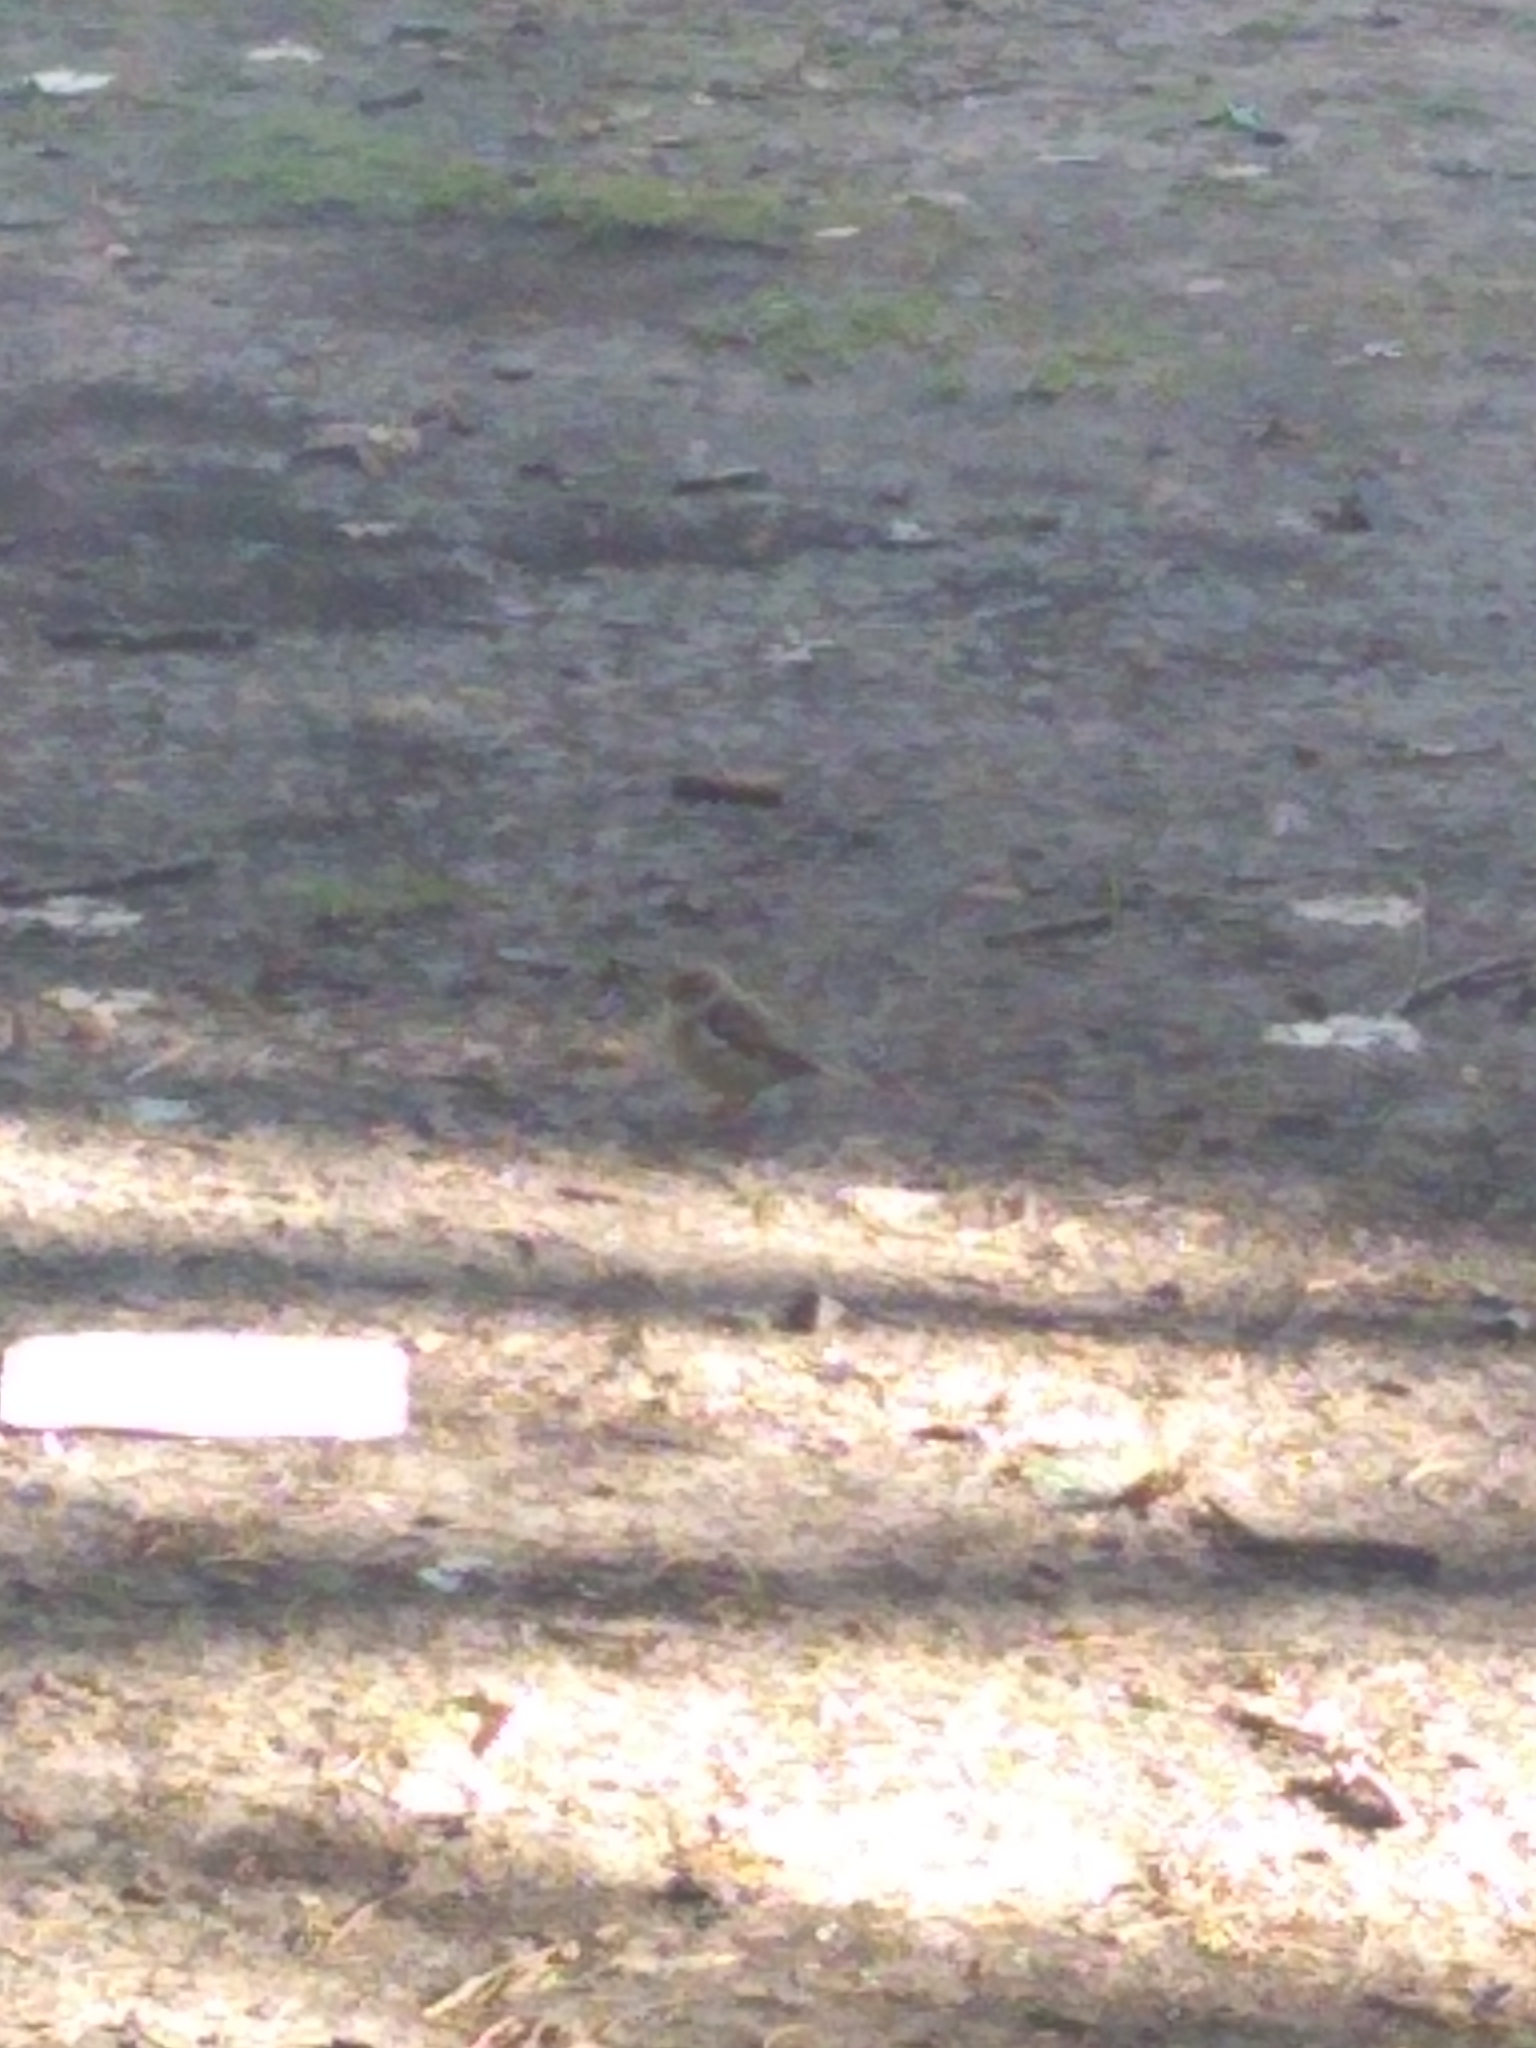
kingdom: Animalia
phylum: Chordata
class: Aves
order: Passeriformes
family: Passeridae
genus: Passer
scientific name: Passer domesticus
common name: House sparrow
